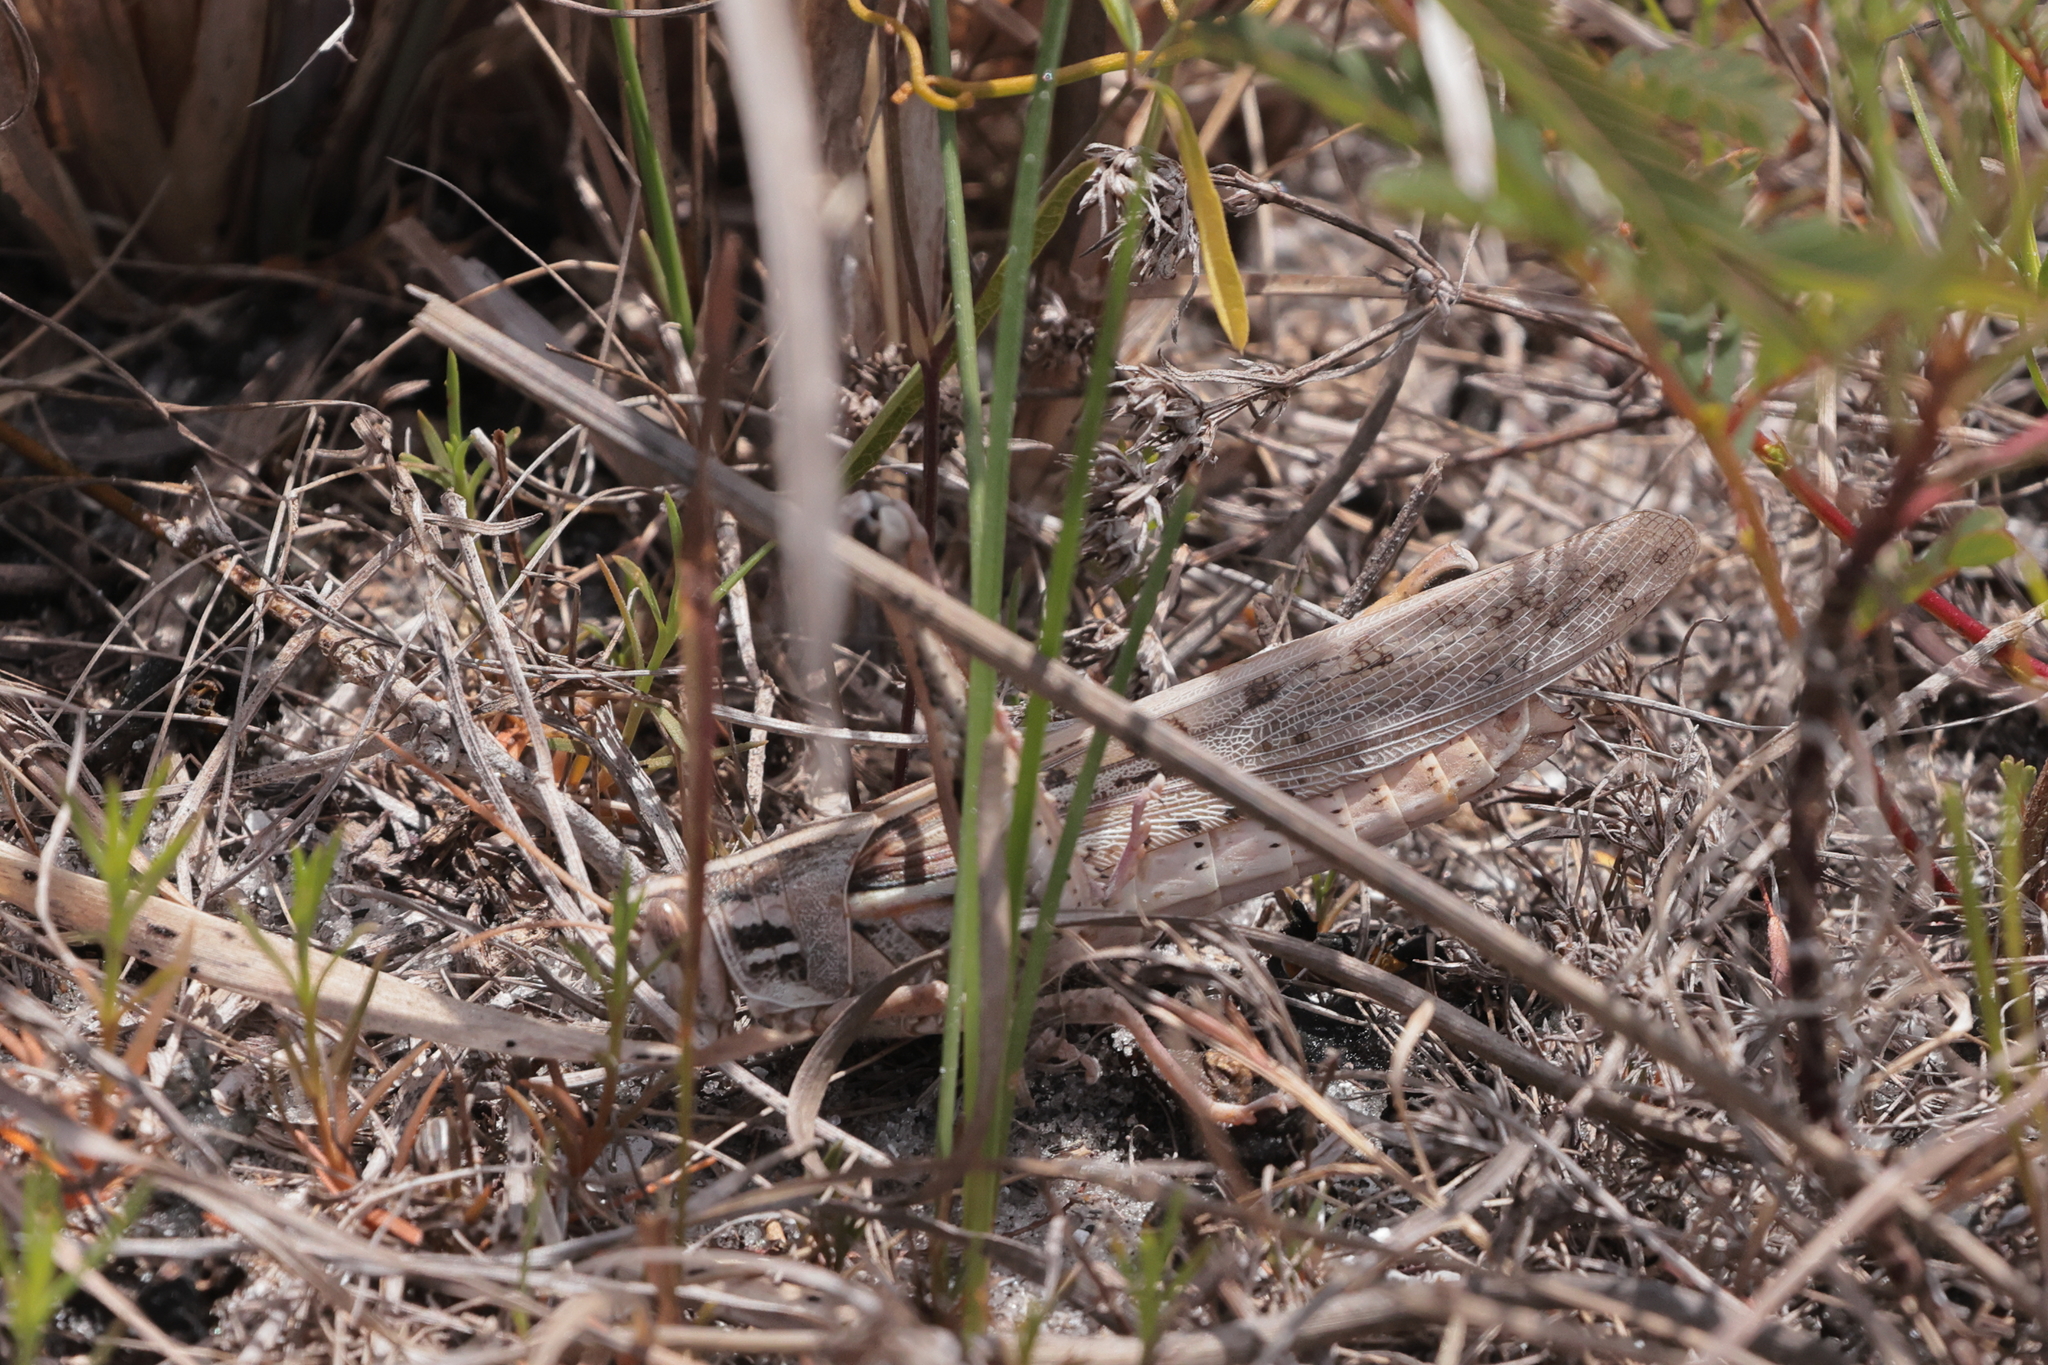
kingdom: Animalia
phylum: Arthropoda
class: Insecta
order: Orthoptera
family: Acrididae
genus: Schistocerca
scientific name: Schistocerca americana
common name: American bird locust
